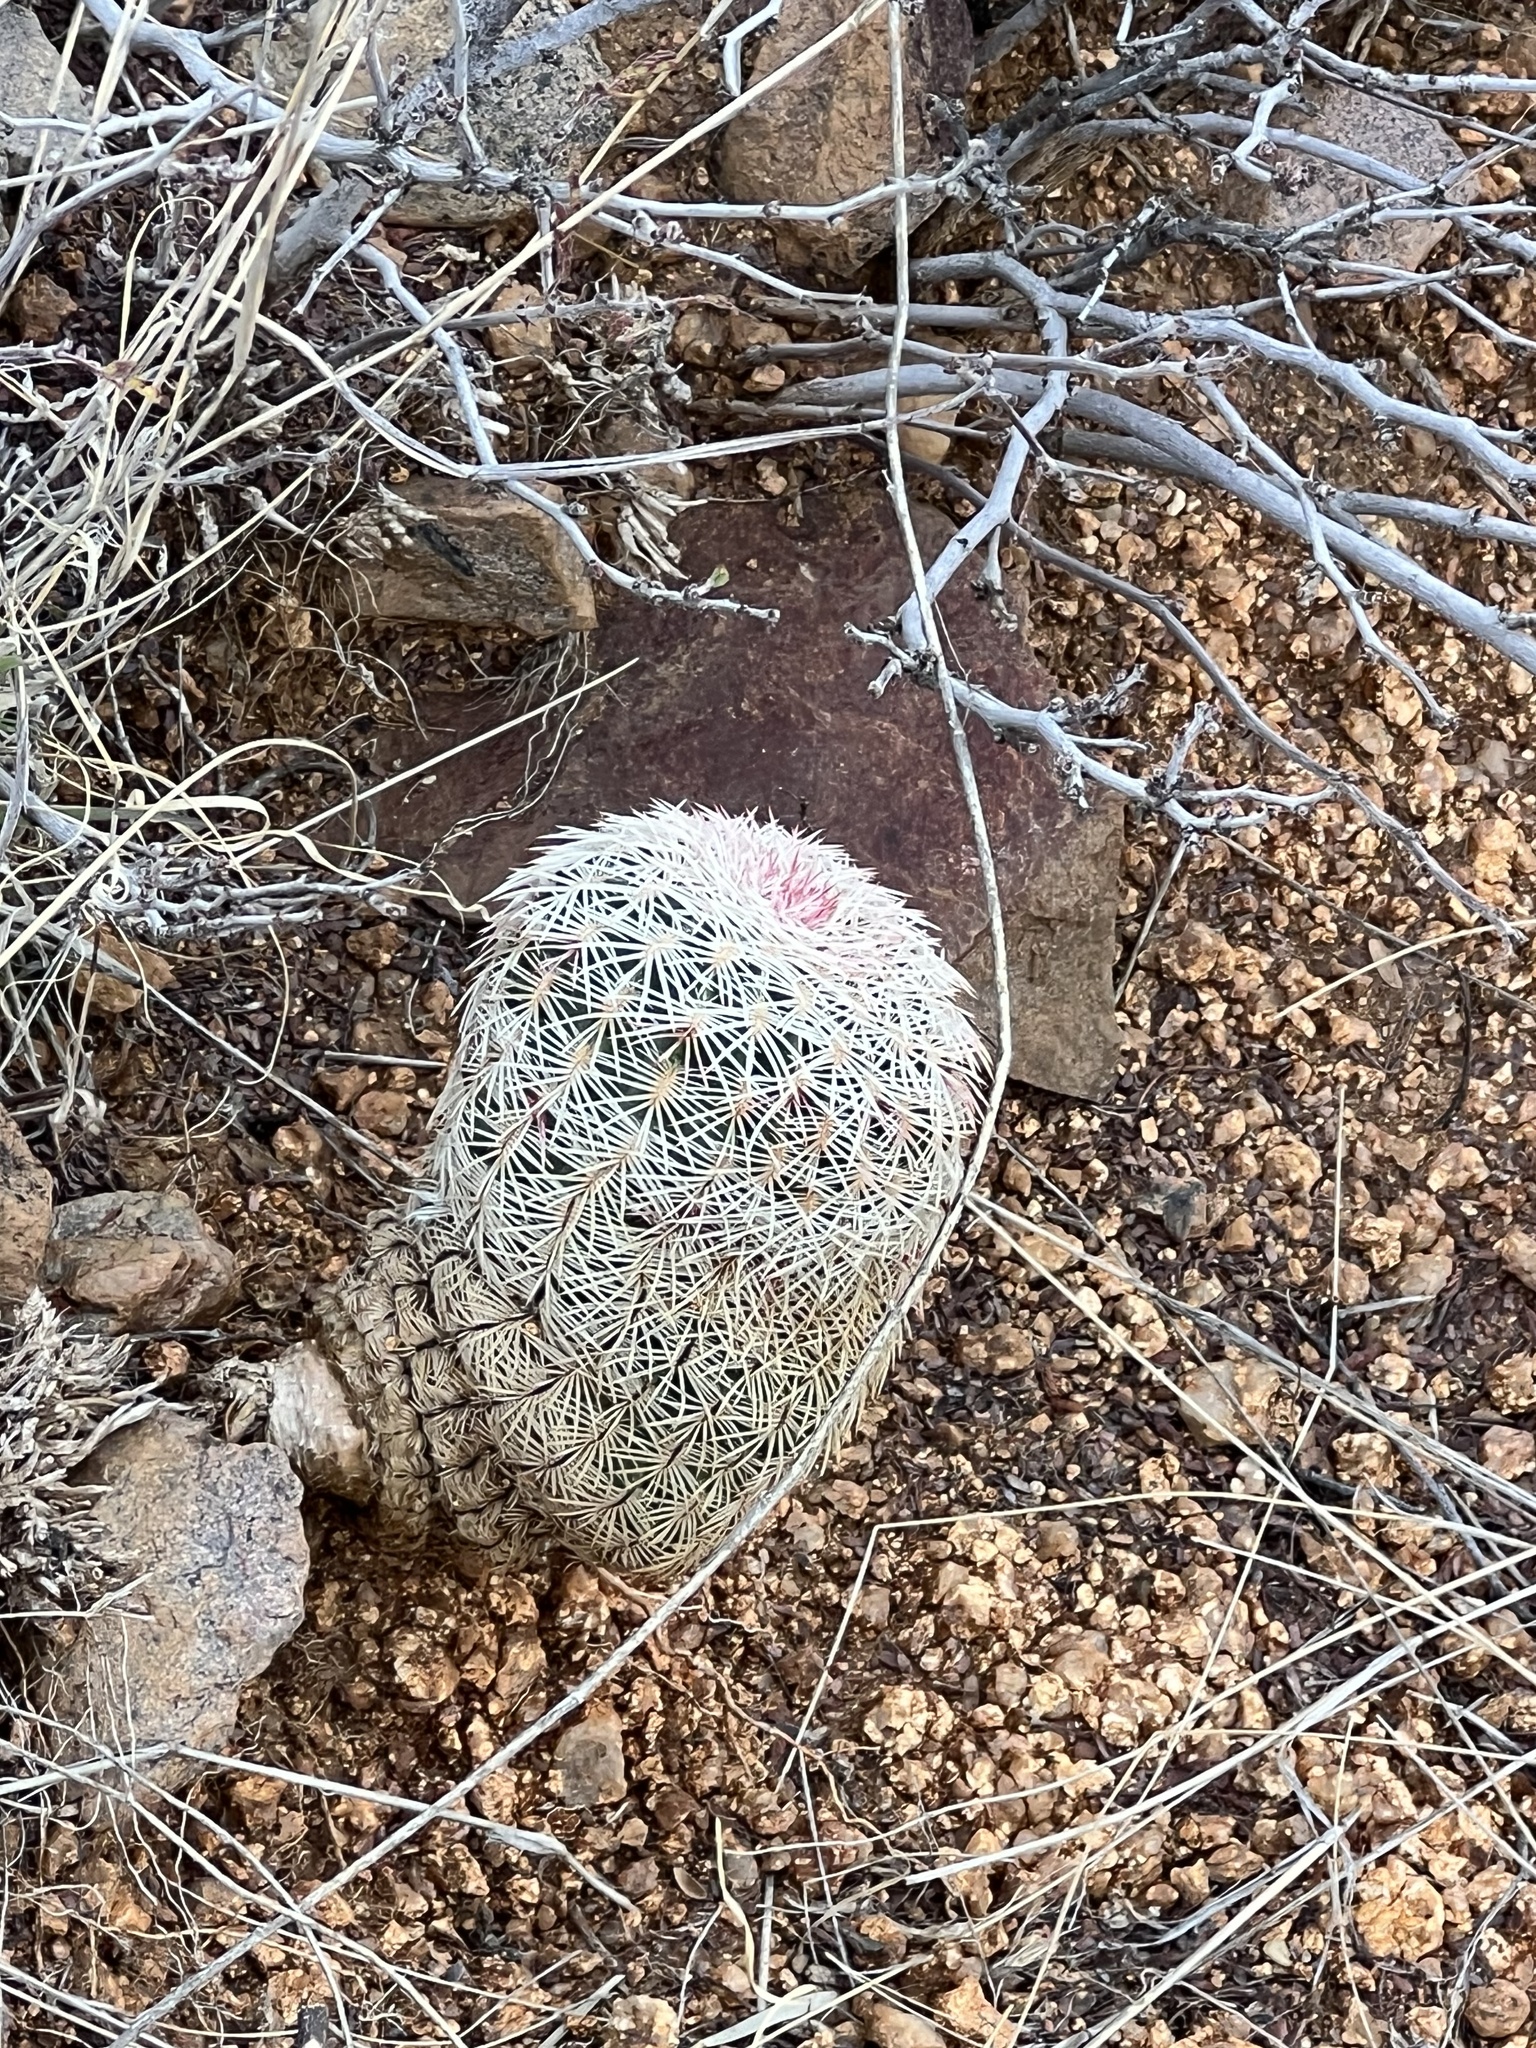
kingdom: Plantae
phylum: Tracheophyta
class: Magnoliopsida
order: Caryophyllales
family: Cactaceae
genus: Echinocereus
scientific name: Echinocereus rigidissimus
